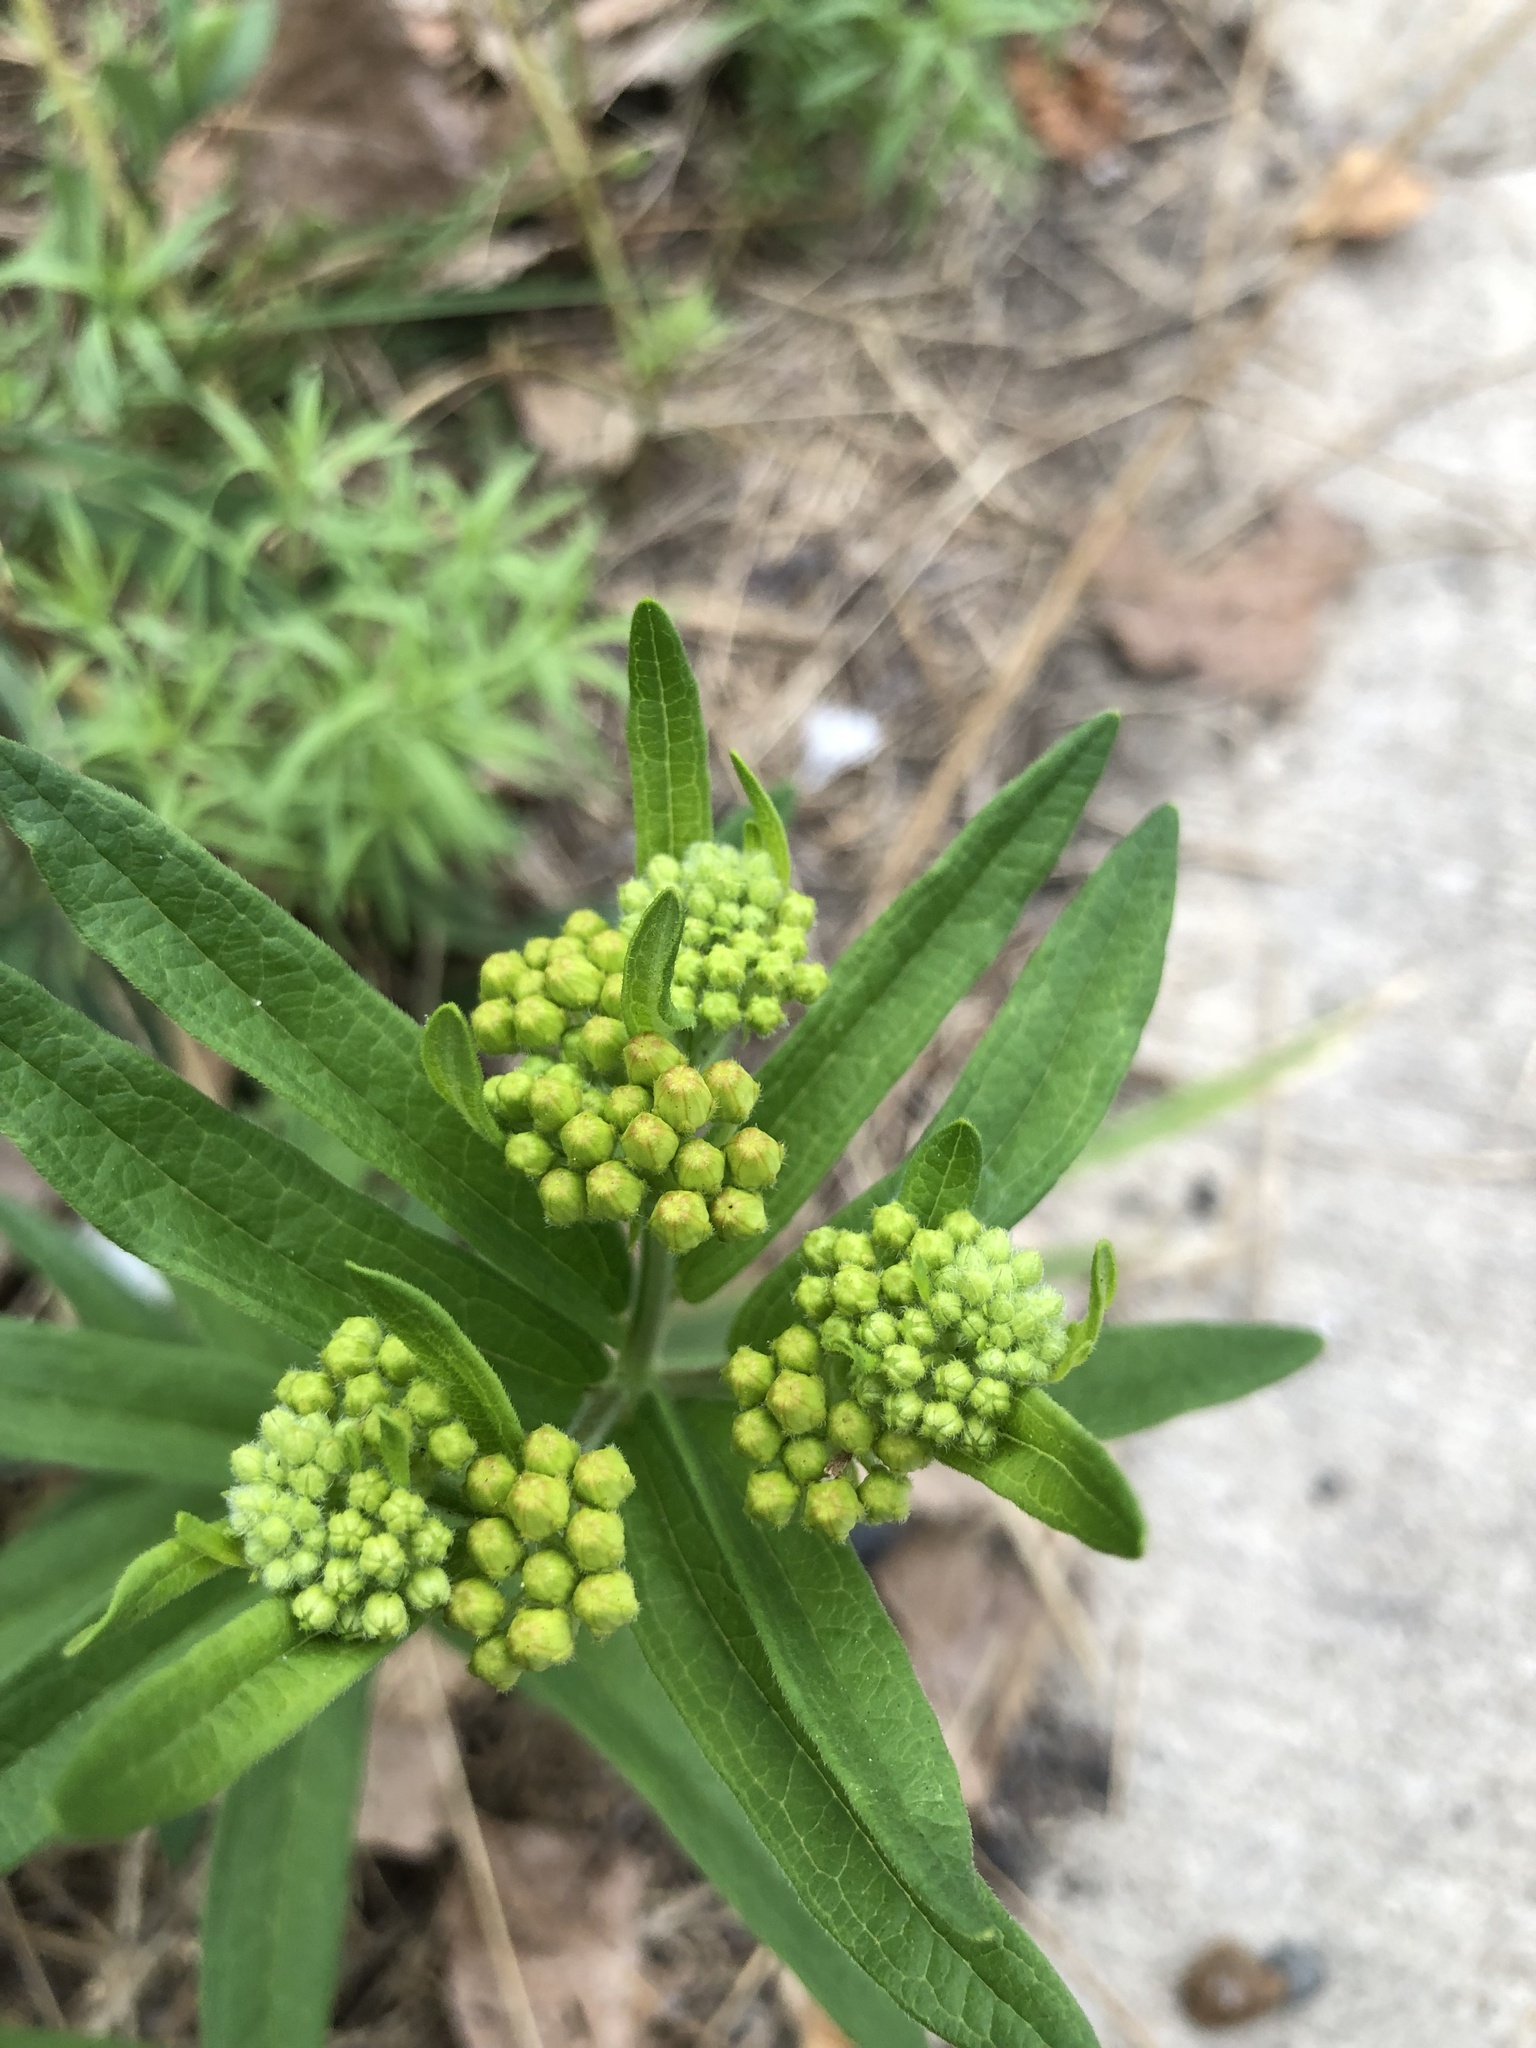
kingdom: Plantae
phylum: Tracheophyta
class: Magnoliopsida
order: Gentianales
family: Apocynaceae
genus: Asclepias
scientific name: Asclepias tuberosa
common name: Butterfly milkweed
